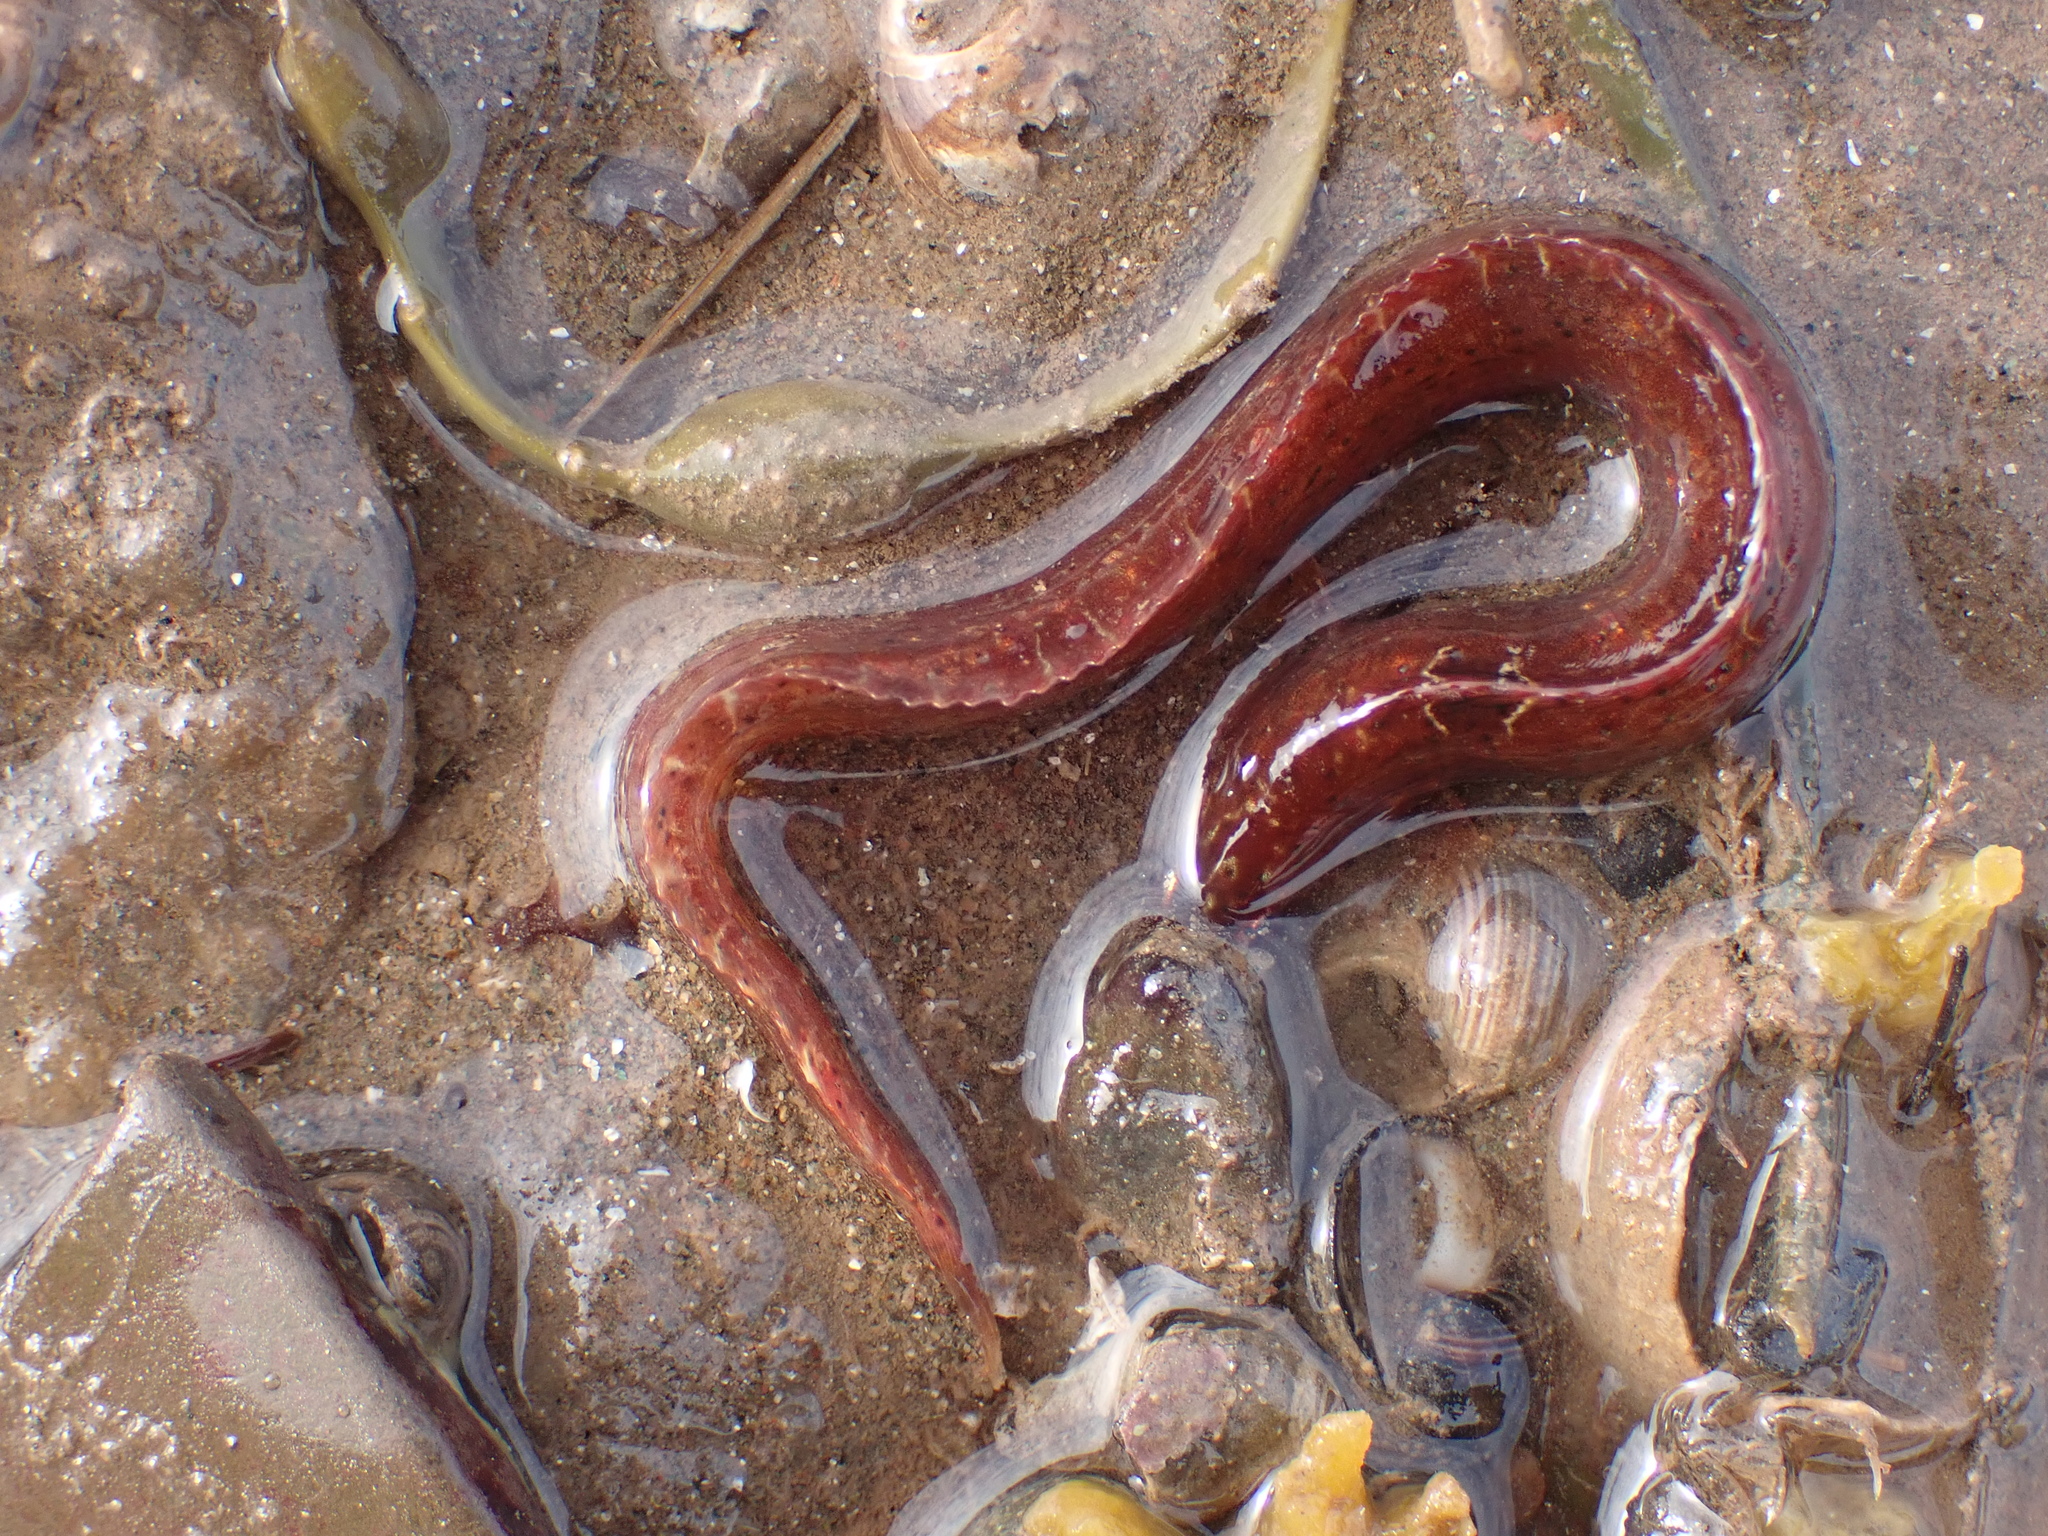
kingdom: Animalia
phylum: Chordata
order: Perciformes
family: Pholidae
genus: Pholis
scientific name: Pholis gunnellus
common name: Butterfish
